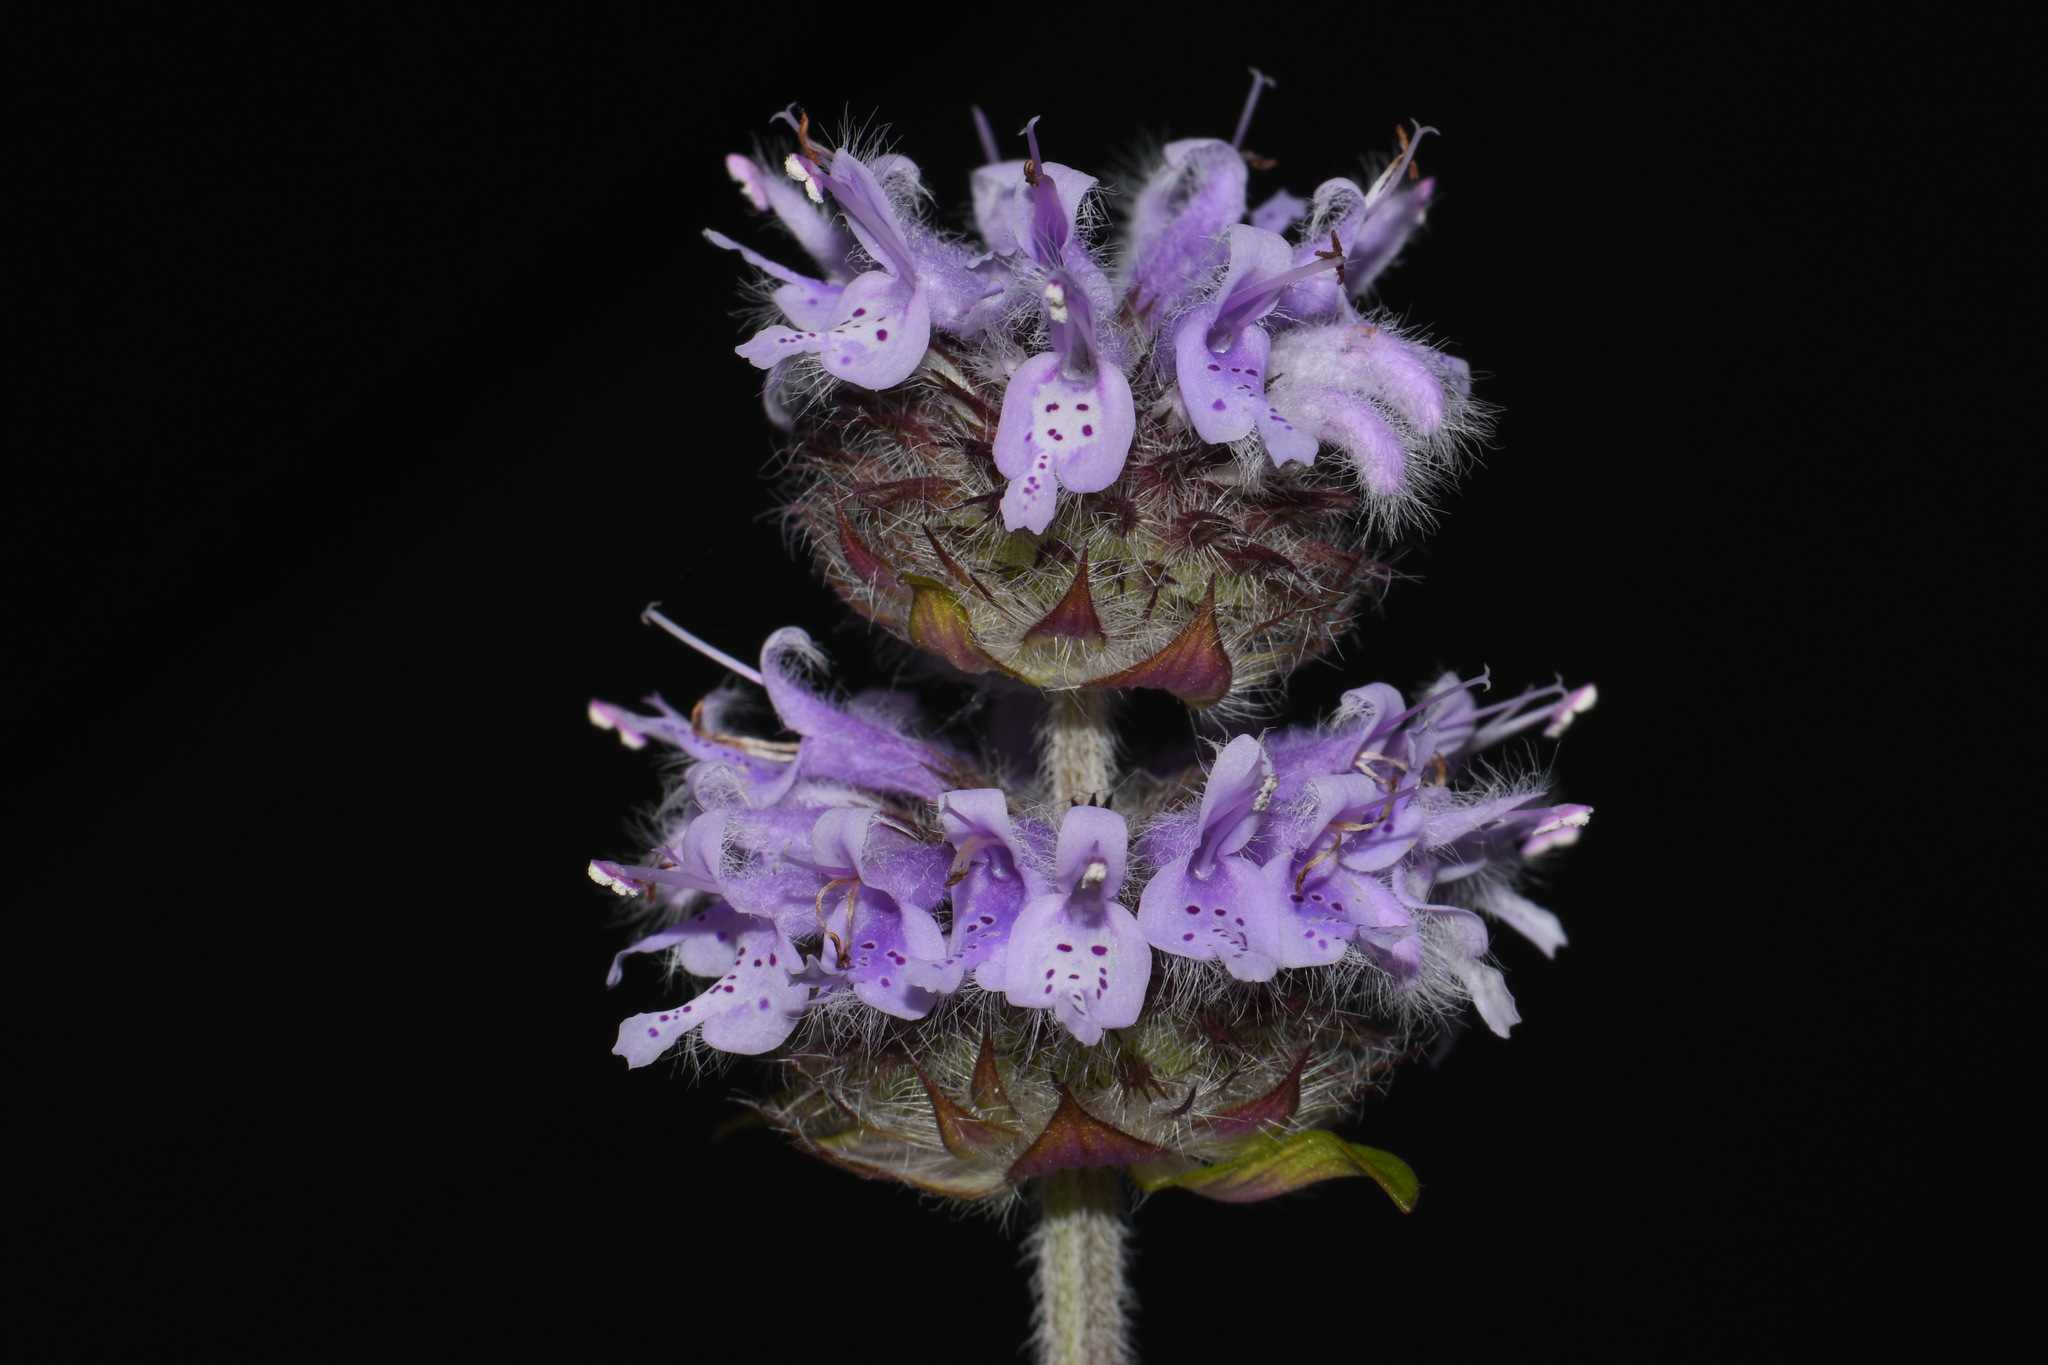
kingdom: Plantae
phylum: Tracheophyta
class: Magnoliopsida
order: Lamiales
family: Lamiaceae
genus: Blephilia
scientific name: Blephilia ciliata
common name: Downy blephilia
